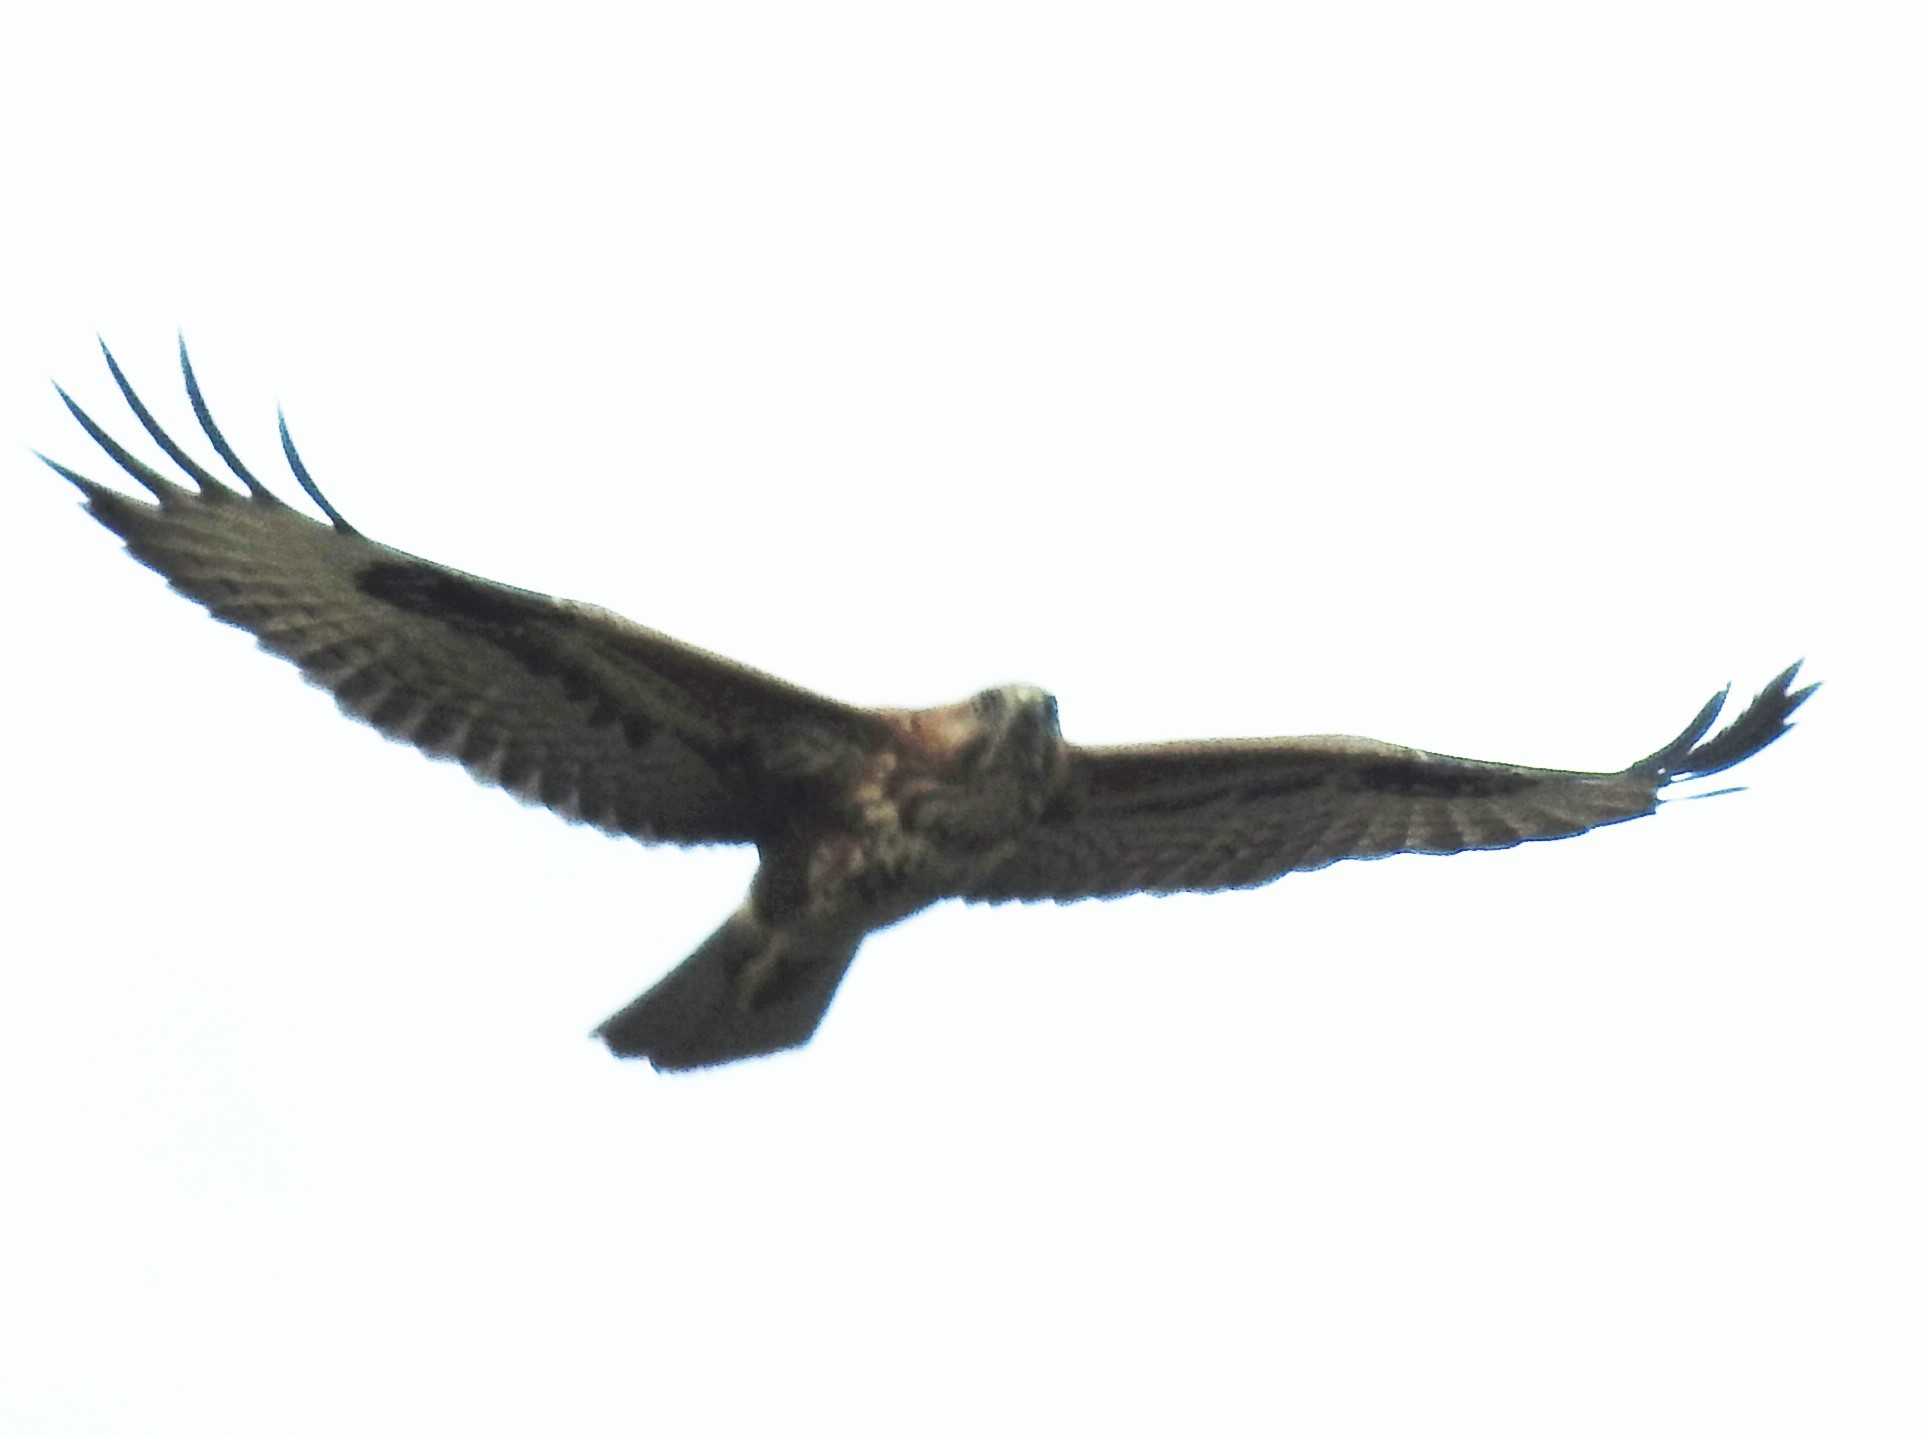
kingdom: Animalia
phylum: Chordata
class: Aves
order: Accipitriformes
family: Accipitridae
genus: Buteo
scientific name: Buteo rufinus
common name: Long-legged buzzard
